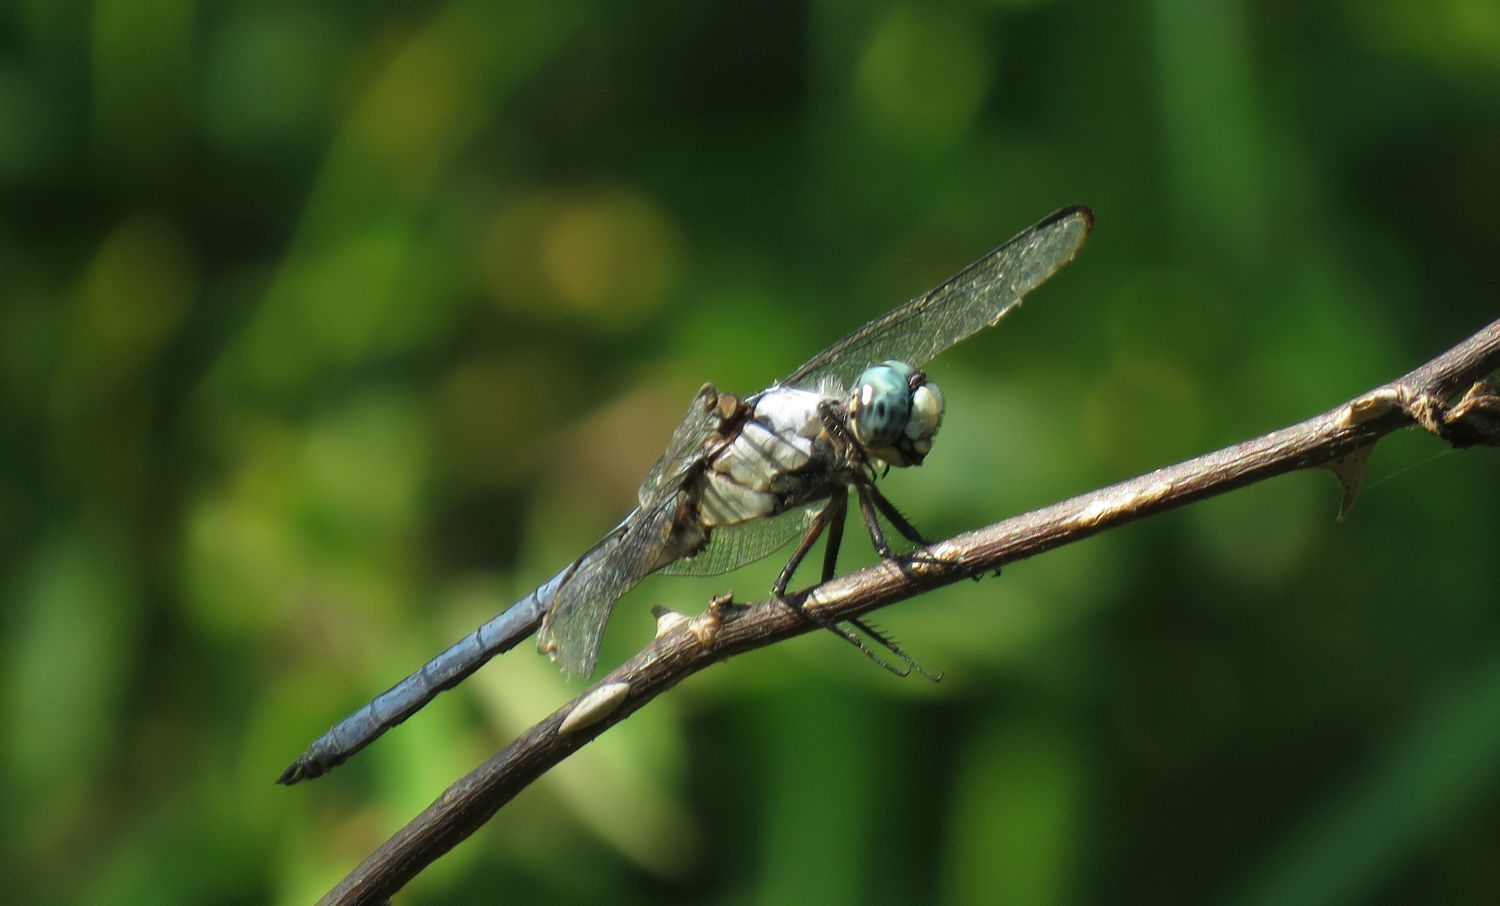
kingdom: Animalia
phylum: Arthropoda
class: Insecta
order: Odonata
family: Libellulidae
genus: Libellula
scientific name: Libellula vibrans
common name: Great blue skimmer
